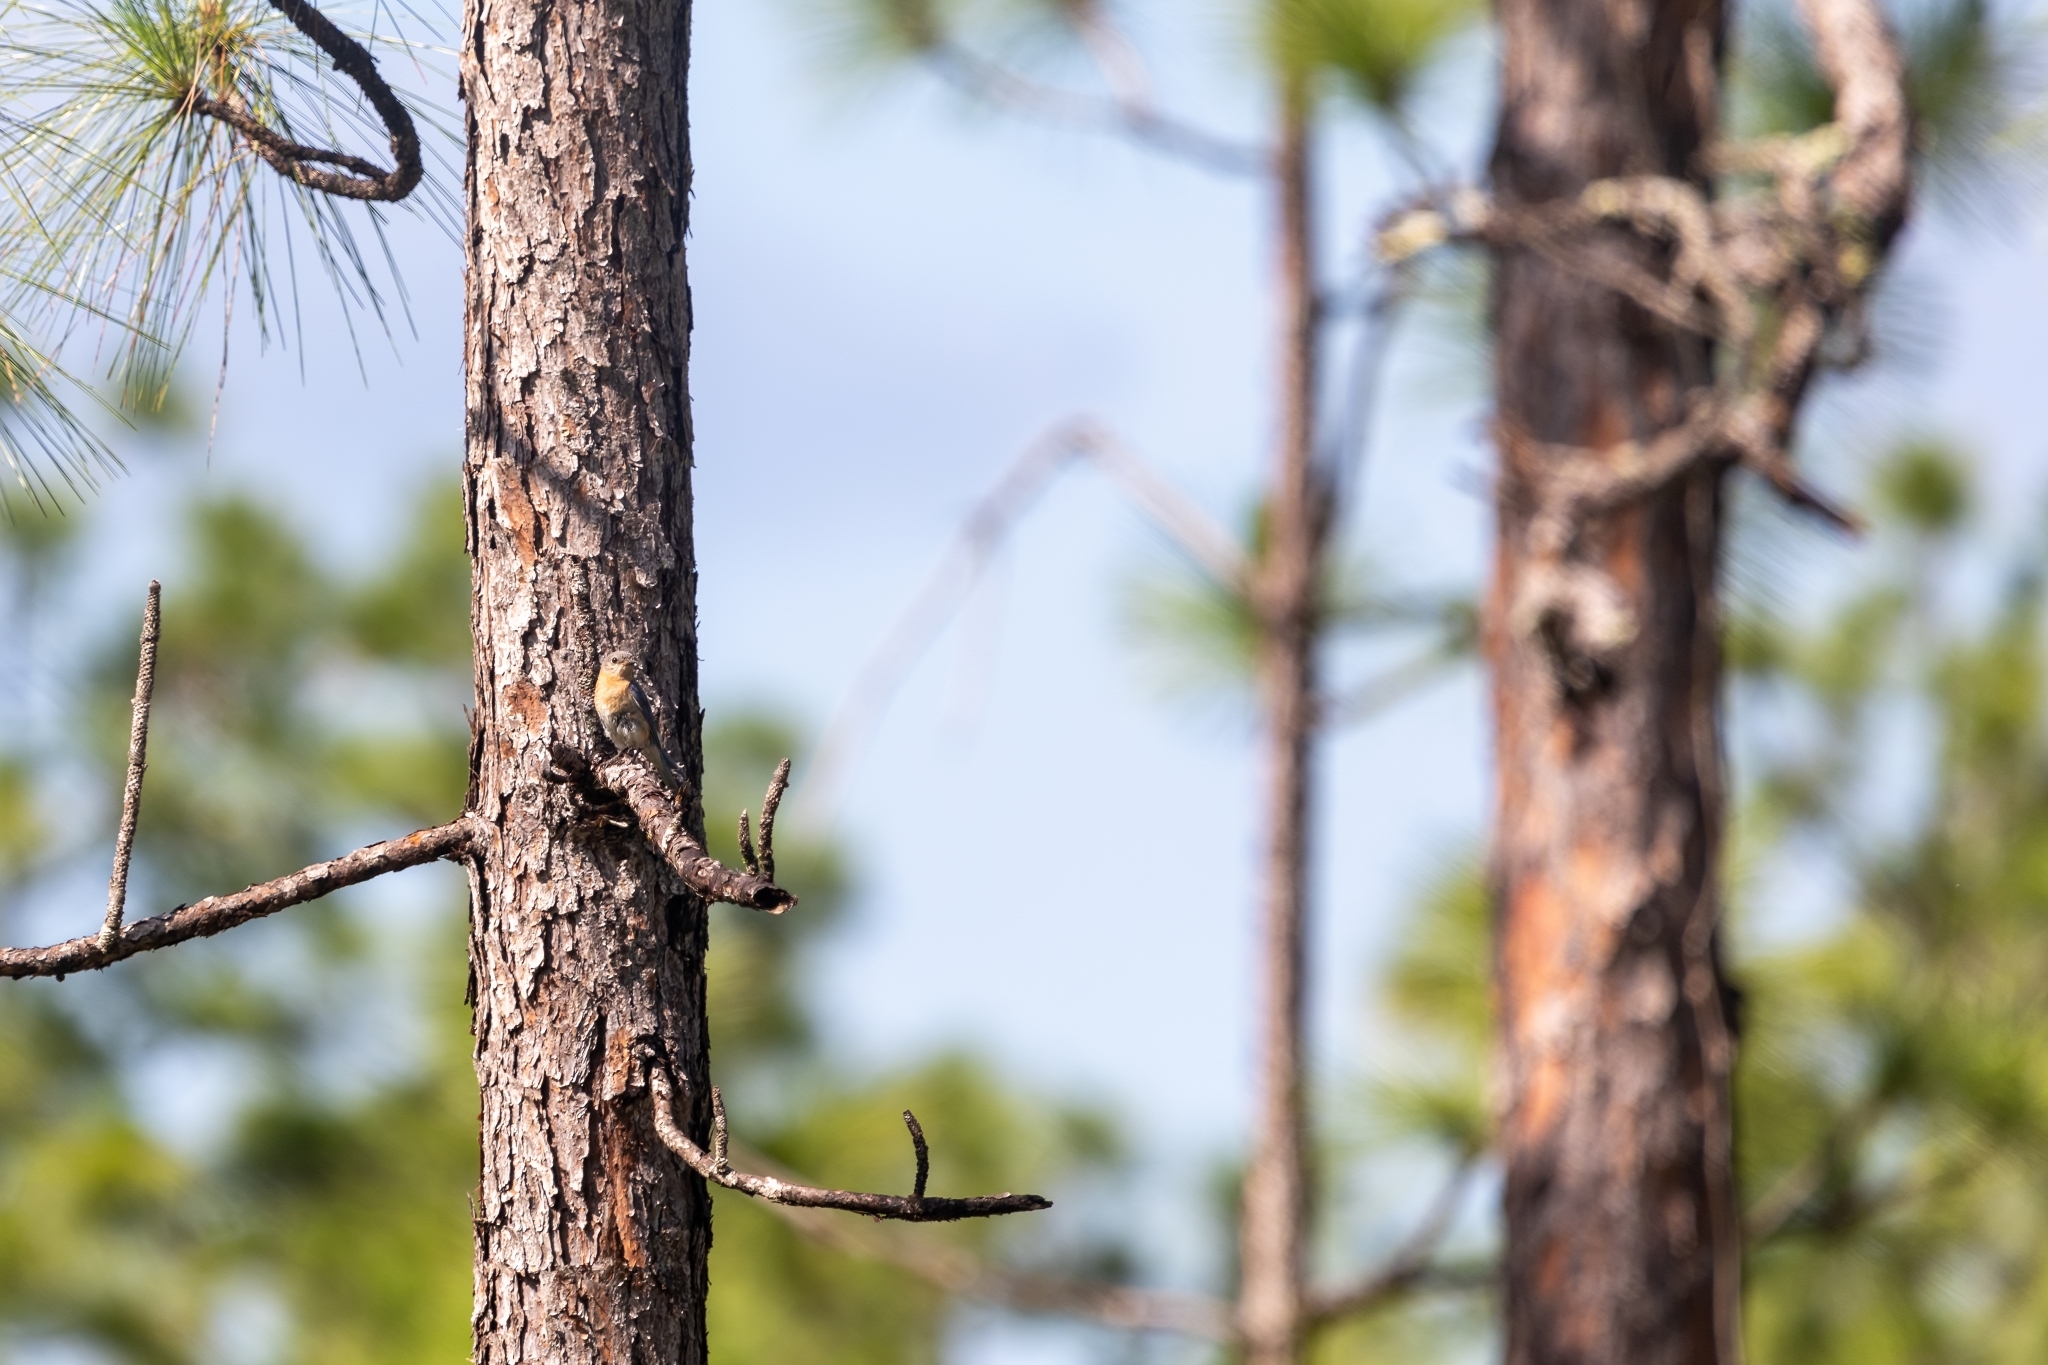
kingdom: Animalia
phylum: Chordata
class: Aves
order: Passeriformes
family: Turdidae
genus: Sialia
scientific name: Sialia sialis
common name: Eastern bluebird
